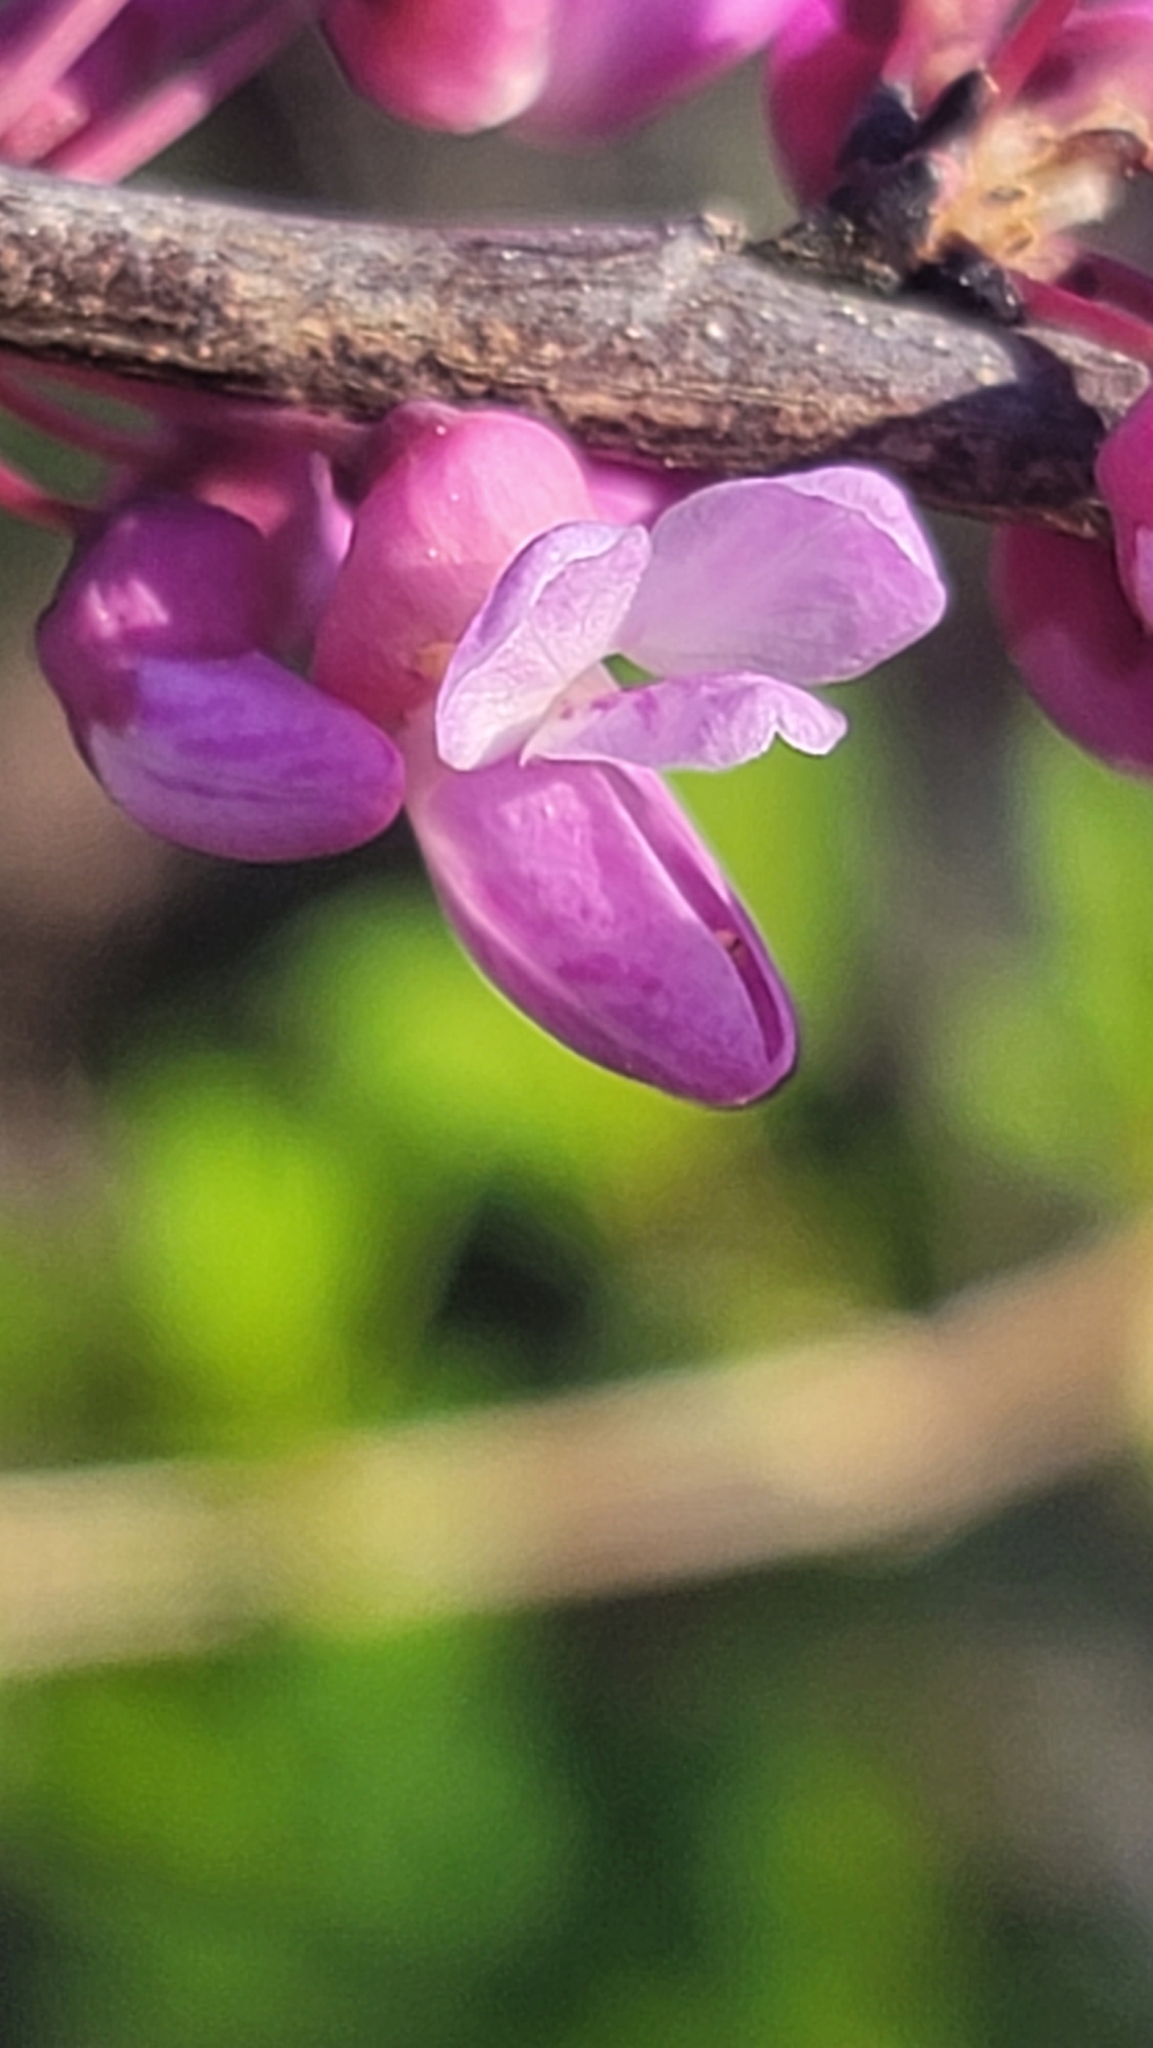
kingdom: Plantae
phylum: Tracheophyta
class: Magnoliopsida
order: Fabales
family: Fabaceae
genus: Cercis
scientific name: Cercis canadensis
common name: Eastern redbud
